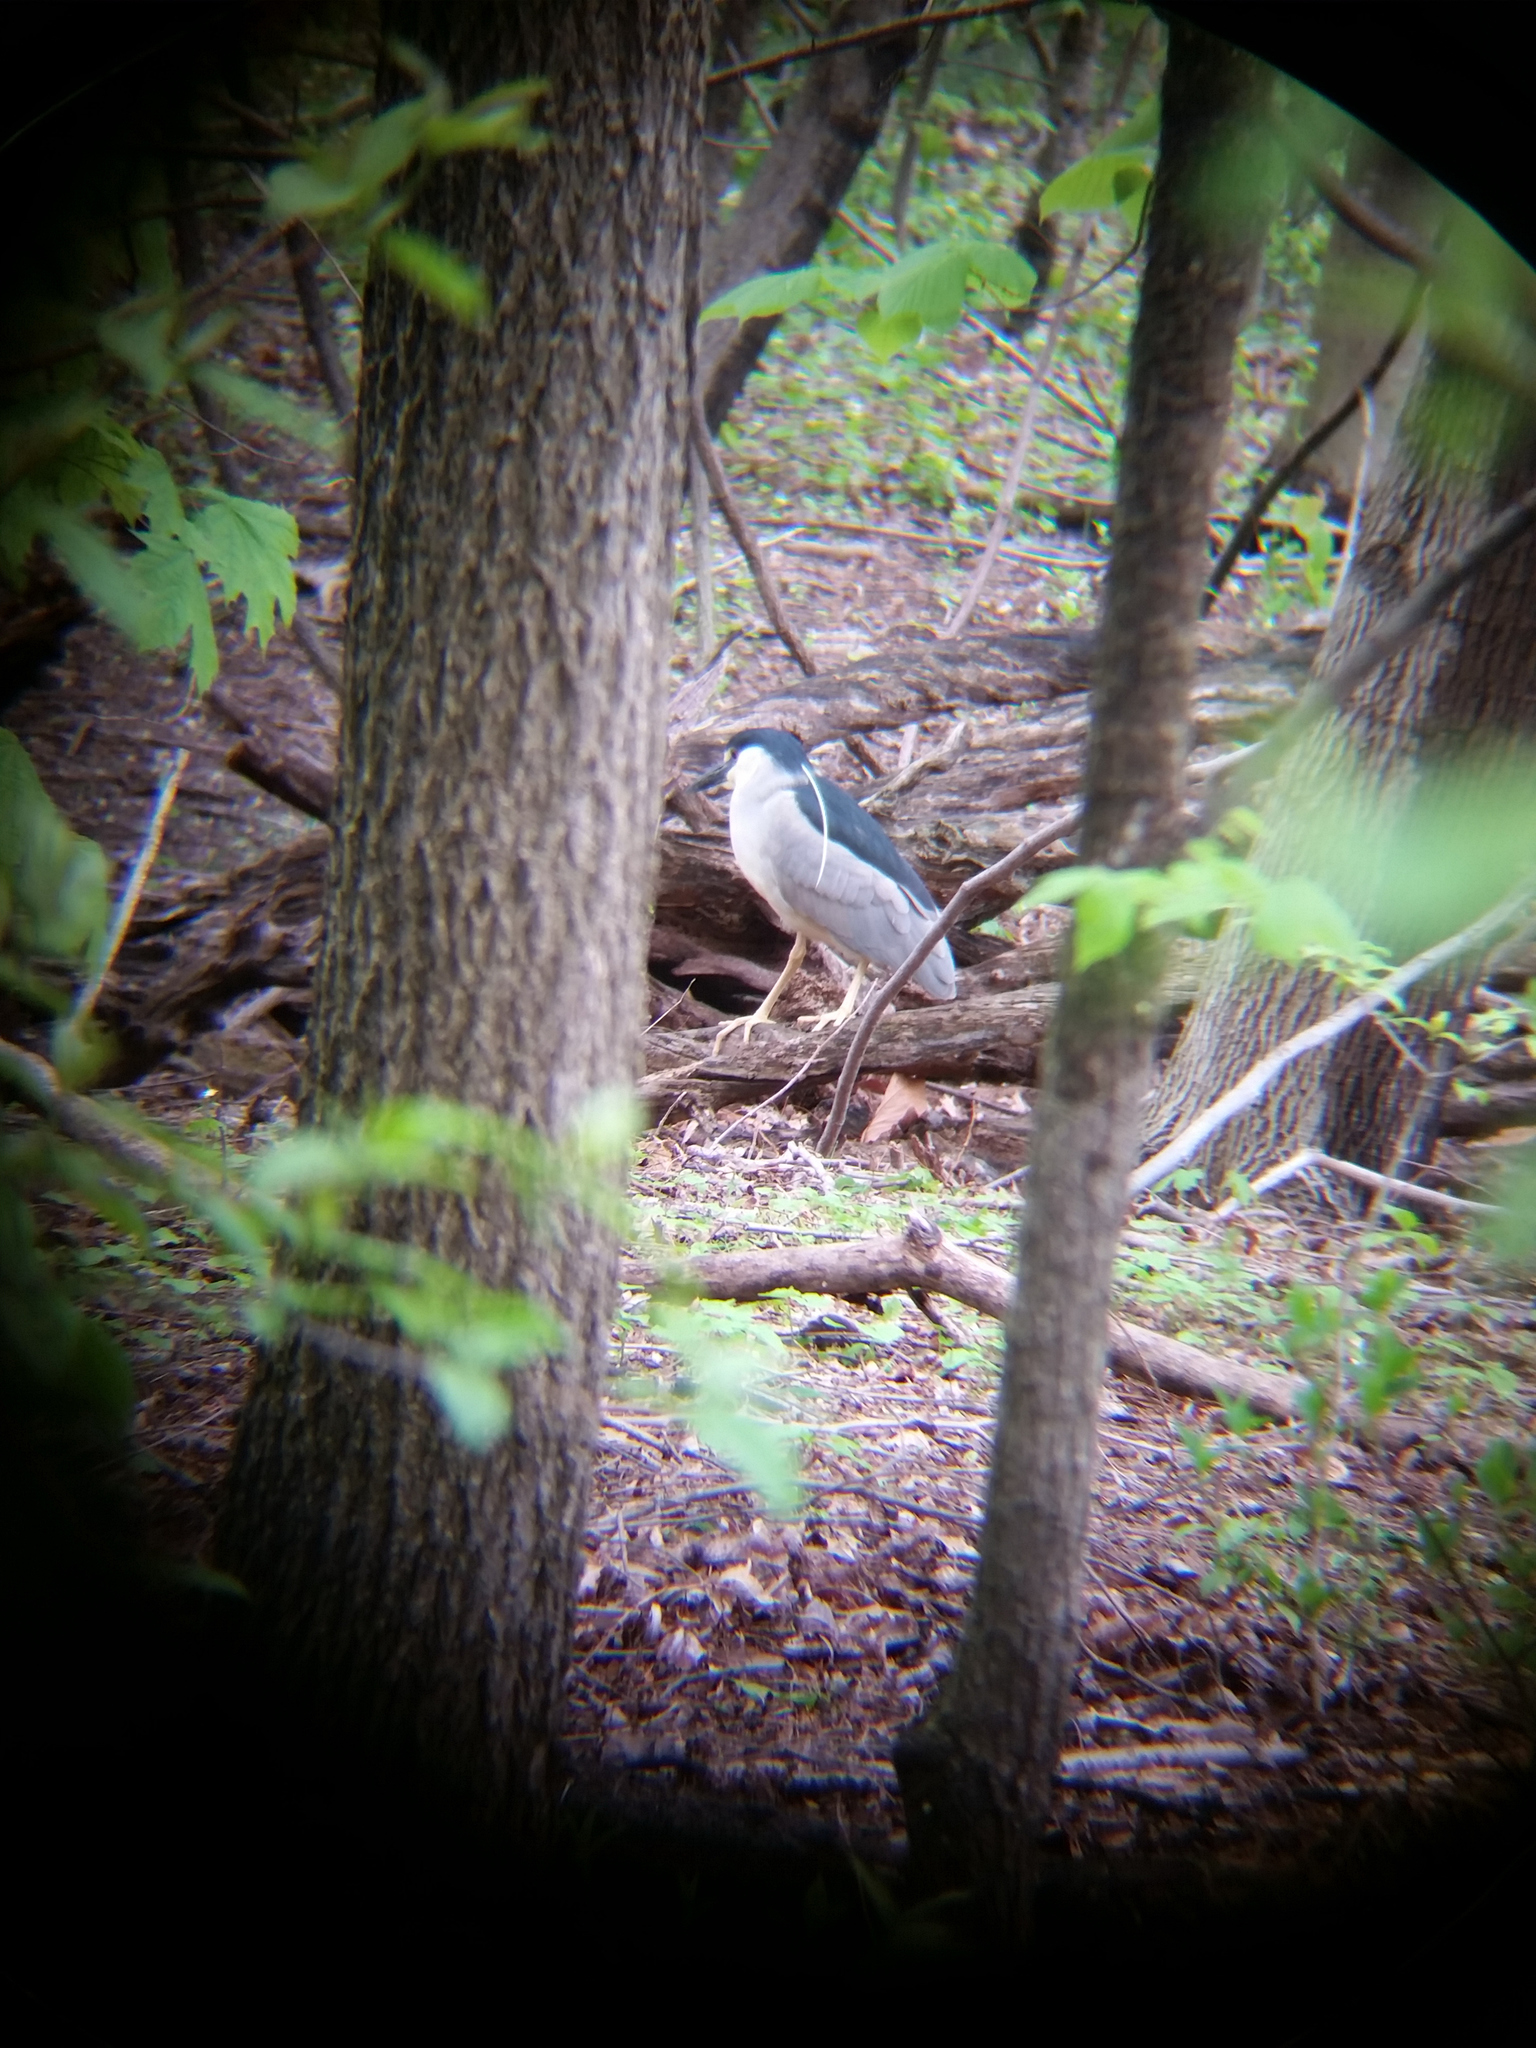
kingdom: Animalia
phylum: Chordata
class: Aves
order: Pelecaniformes
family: Ardeidae
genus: Nycticorax
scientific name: Nycticorax nycticorax
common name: Black-crowned night heron
